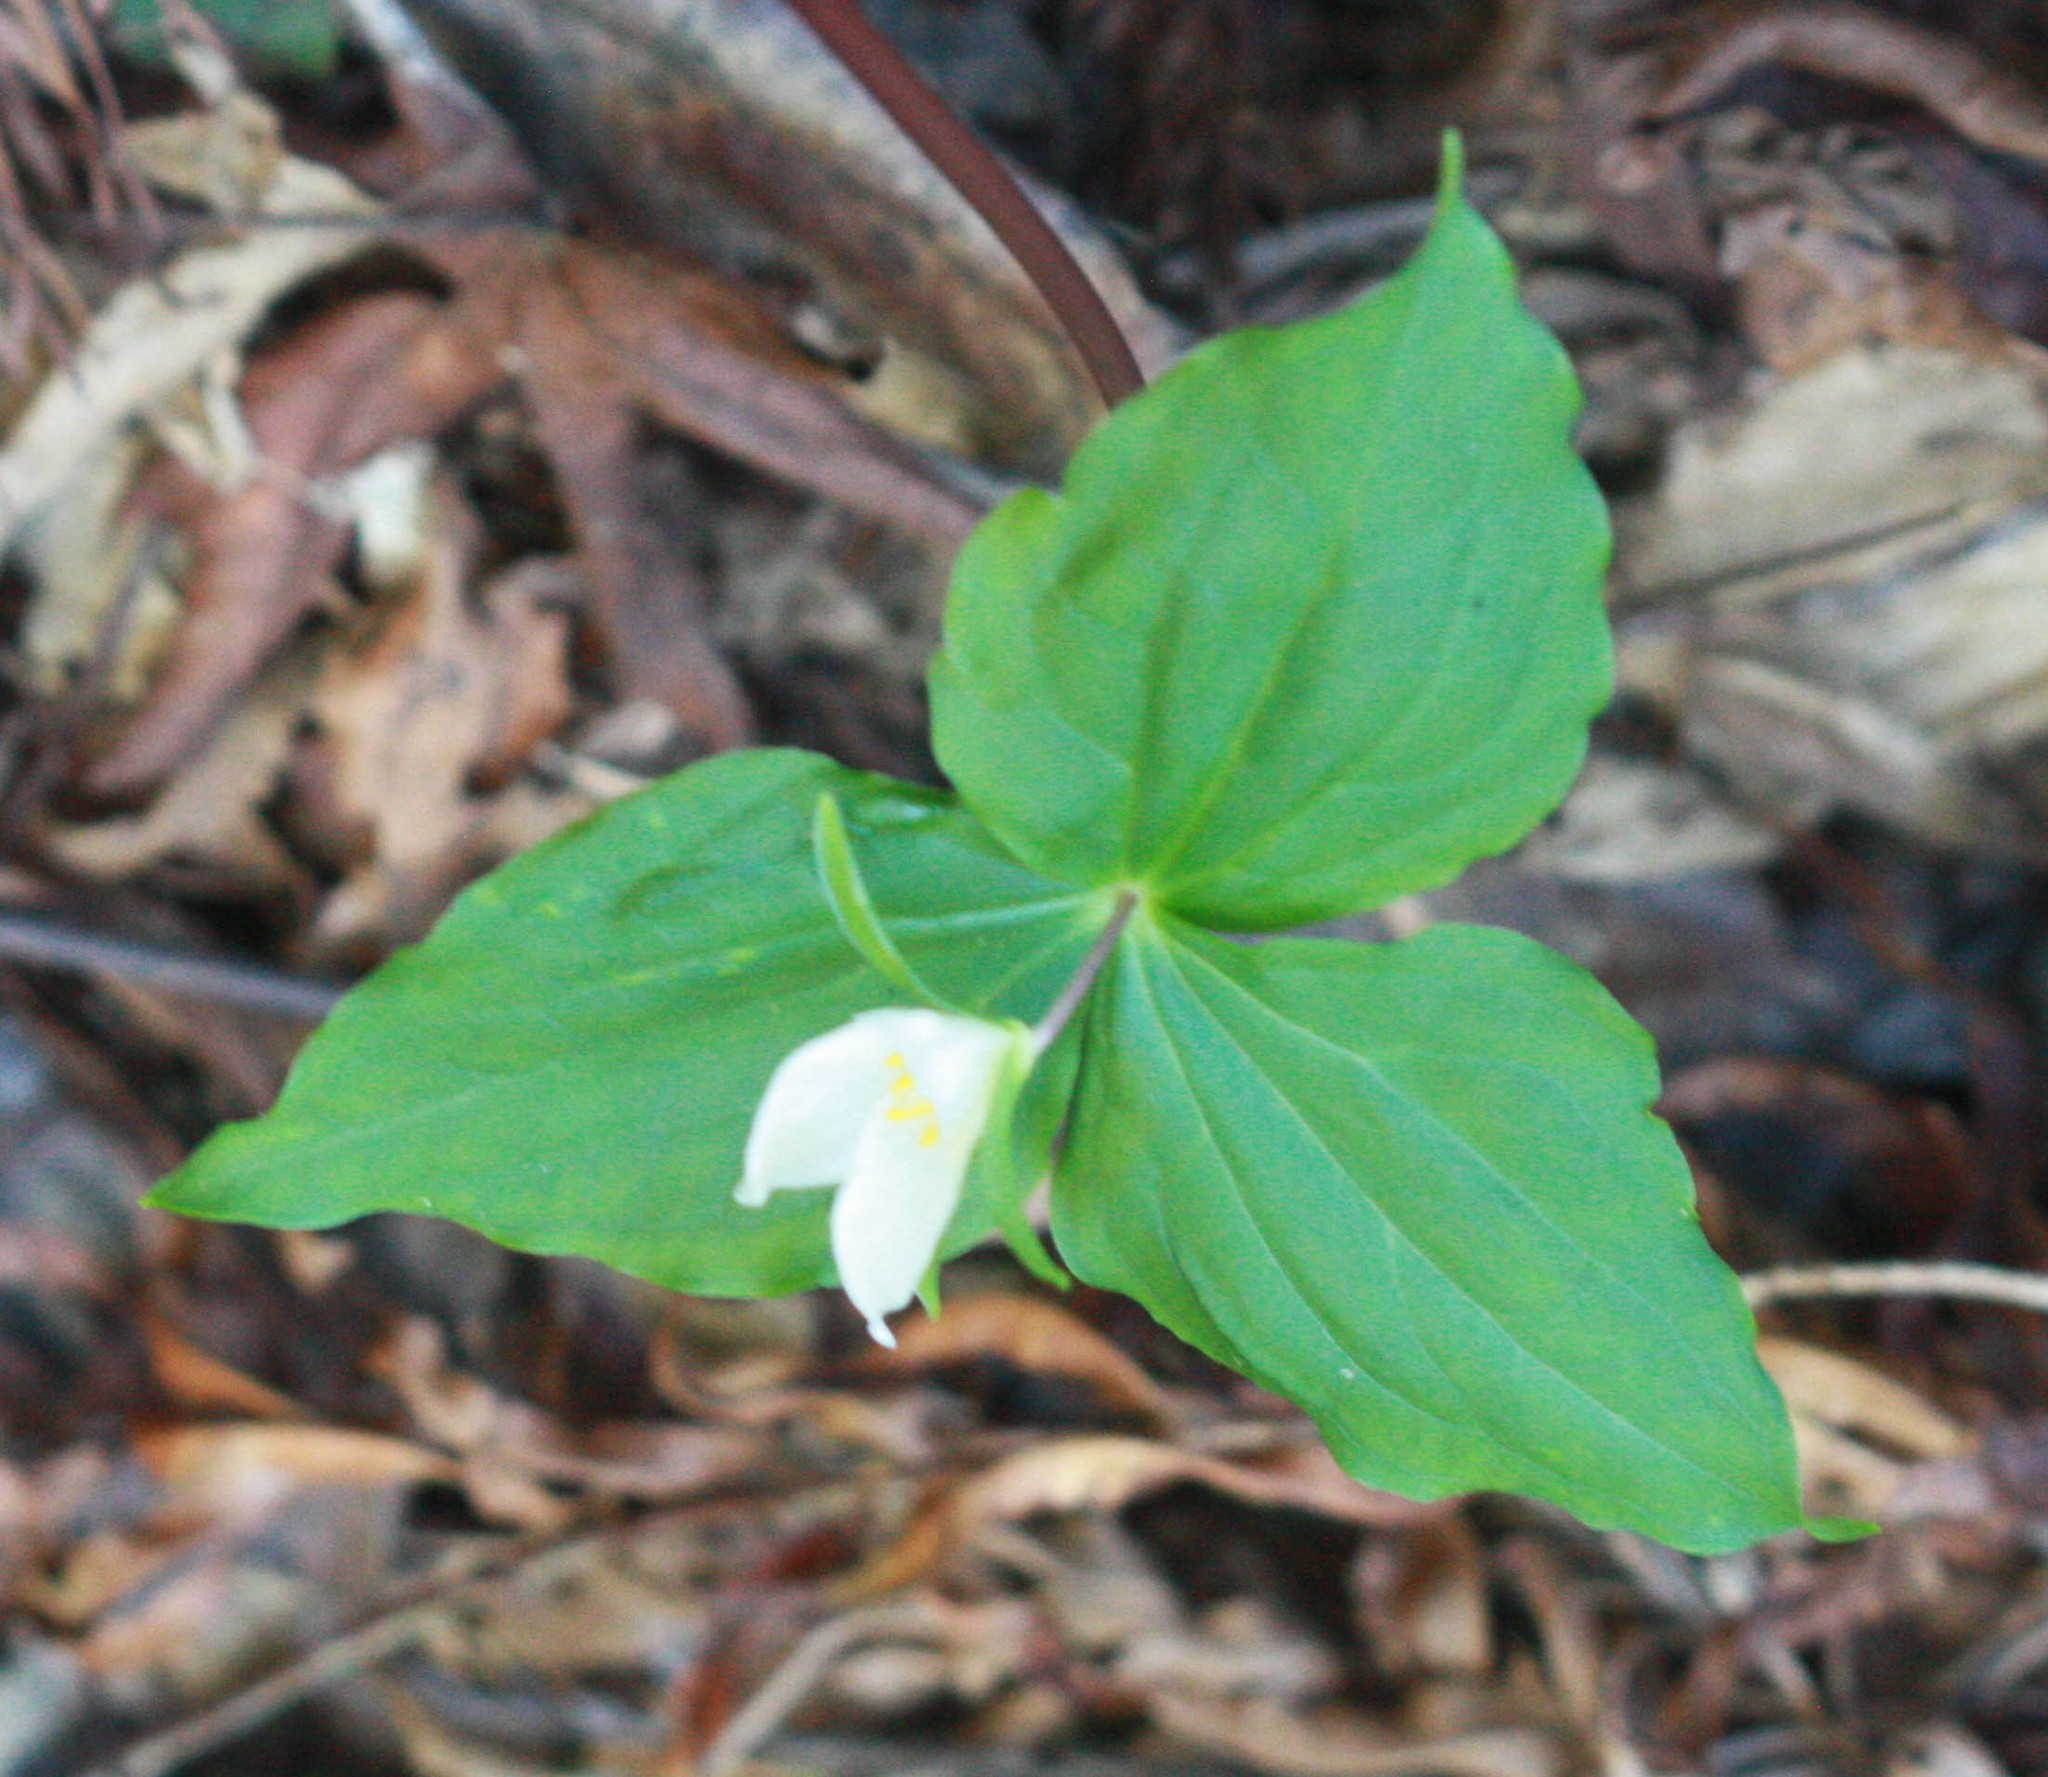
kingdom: Plantae
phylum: Tracheophyta
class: Liliopsida
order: Liliales
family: Melanthiaceae
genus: Trillium
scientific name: Trillium ovatum
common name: Pacific trillium
